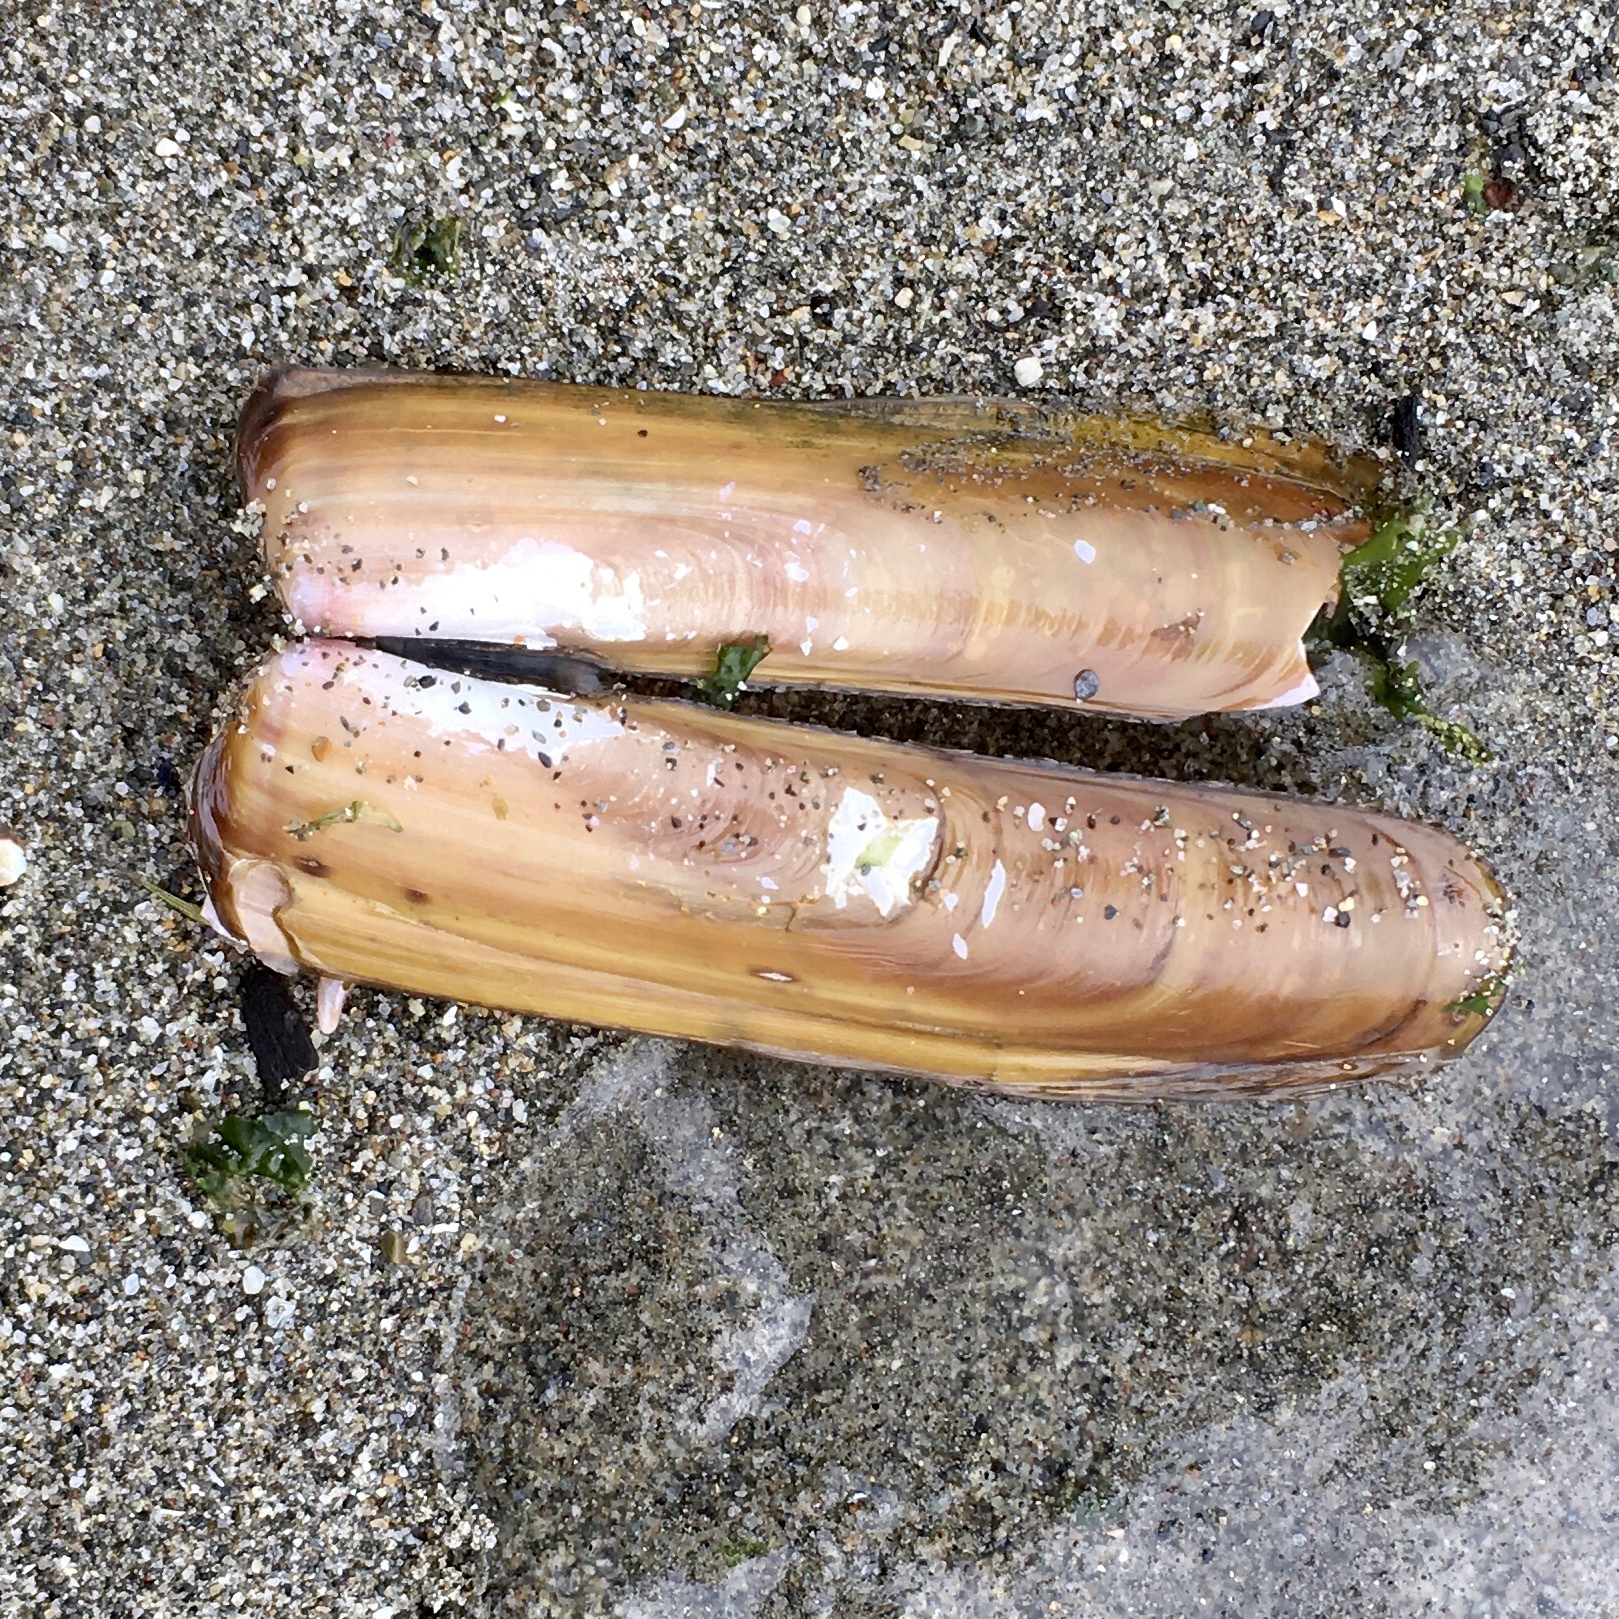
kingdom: Animalia
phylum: Mollusca
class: Bivalvia
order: Adapedonta
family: Solenidae
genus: Solen
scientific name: Solen sicarius
